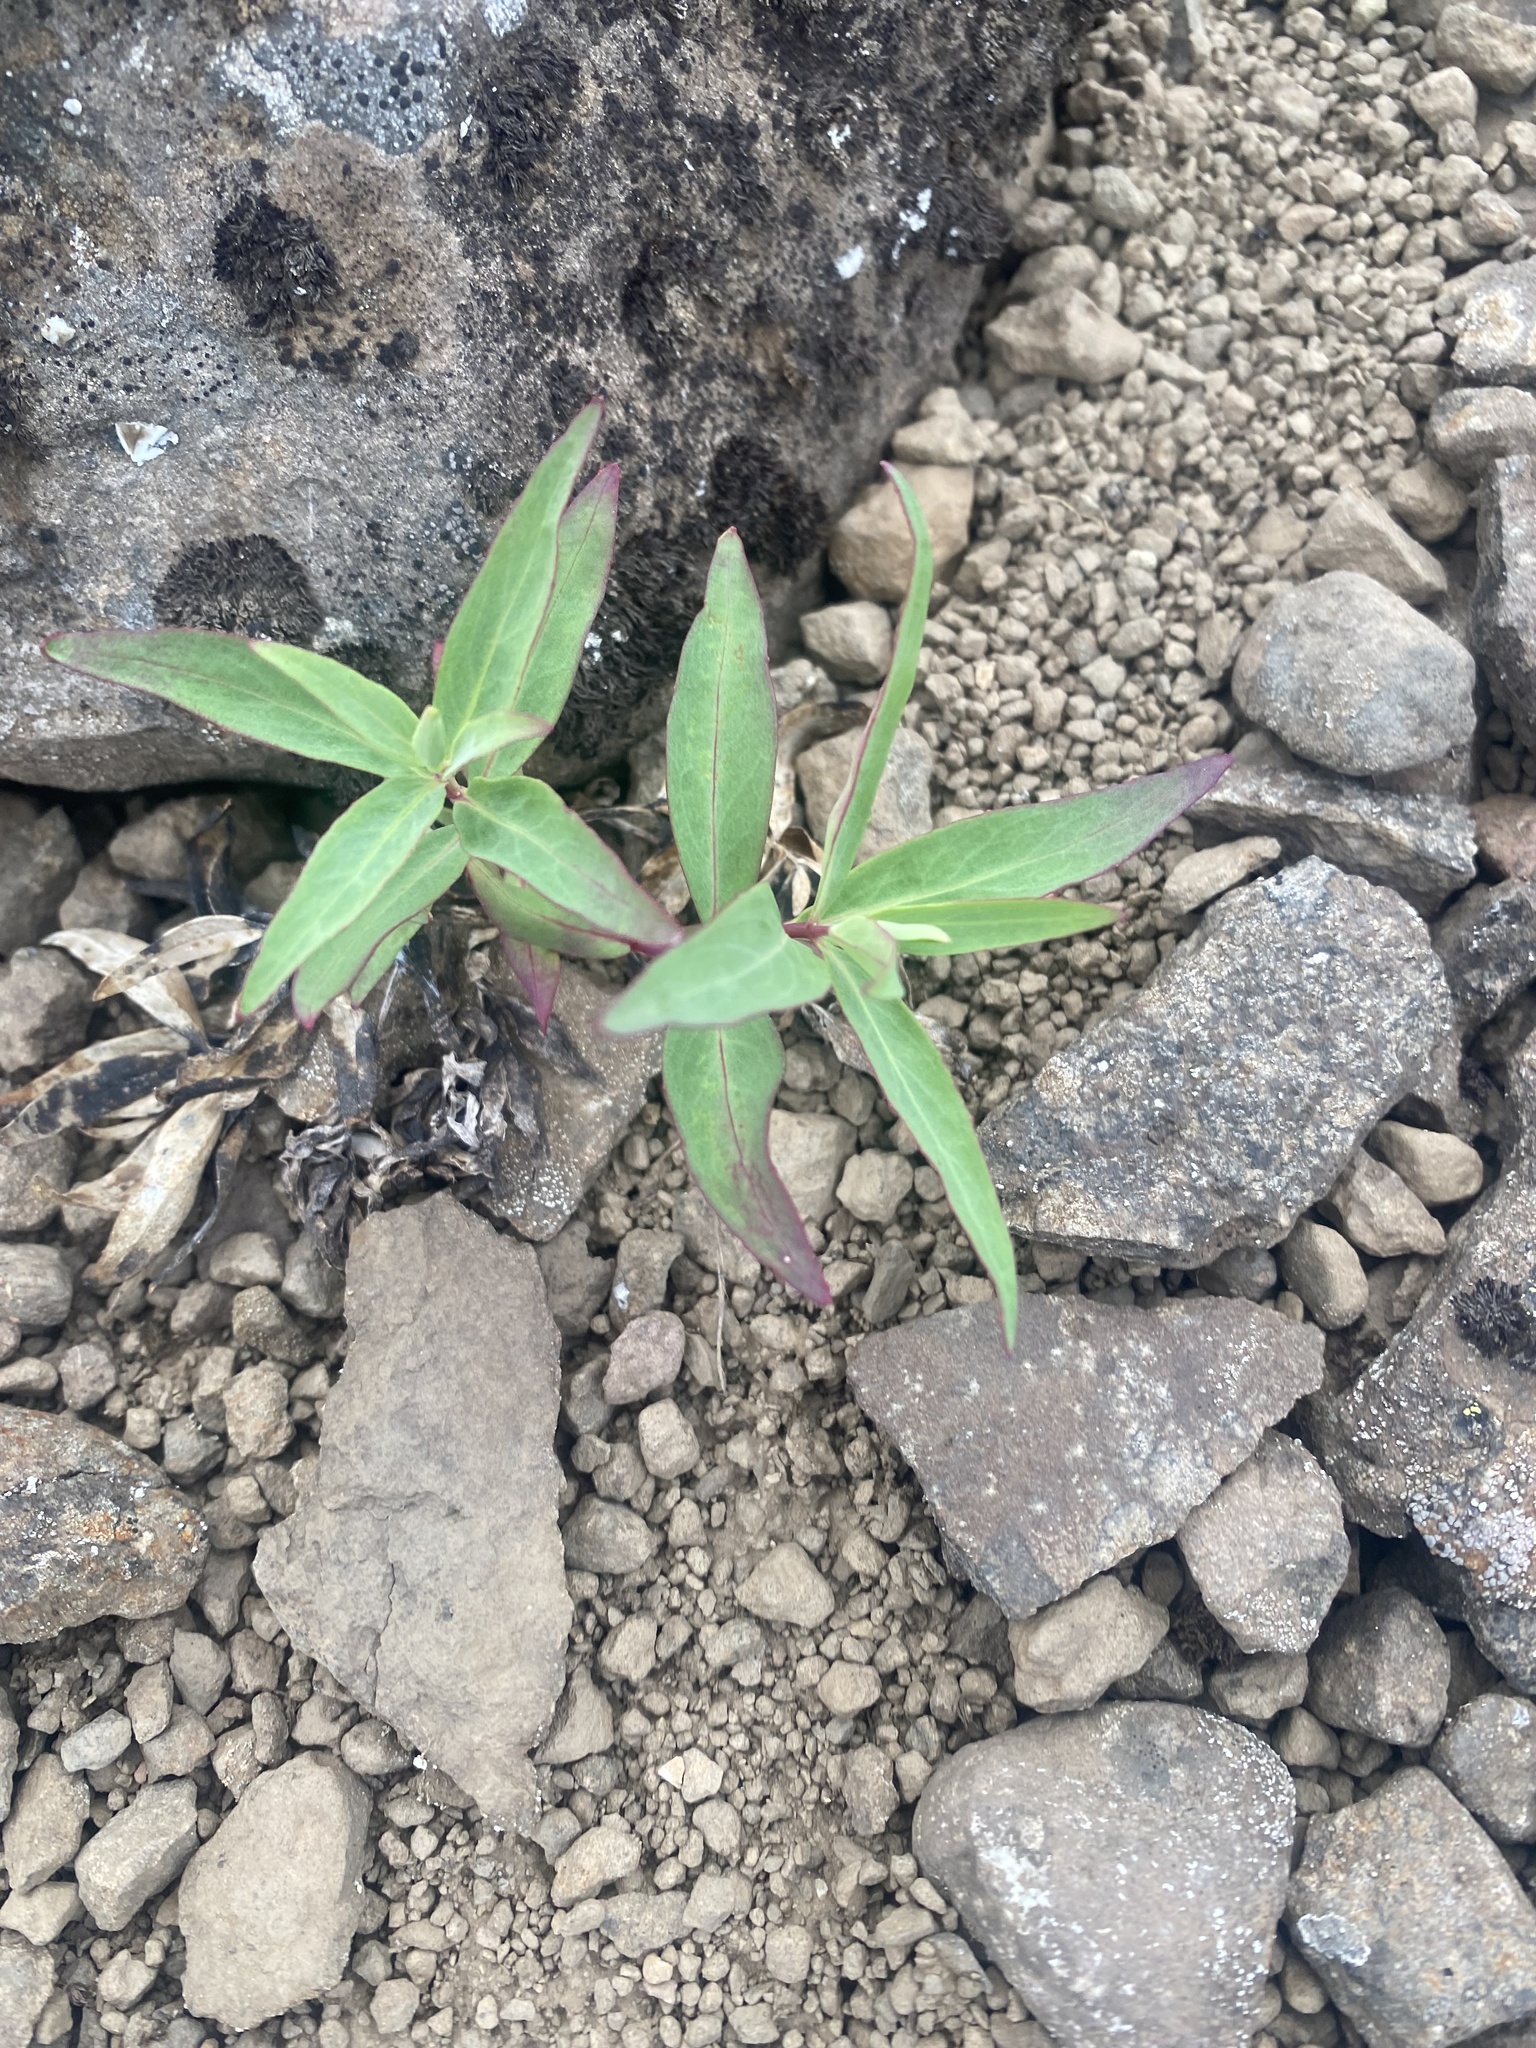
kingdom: Plantae
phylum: Tracheophyta
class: Magnoliopsida
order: Myrtales
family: Onagraceae
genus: Chamaenerion
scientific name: Chamaenerion latifolium
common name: Dwarf fireweed
